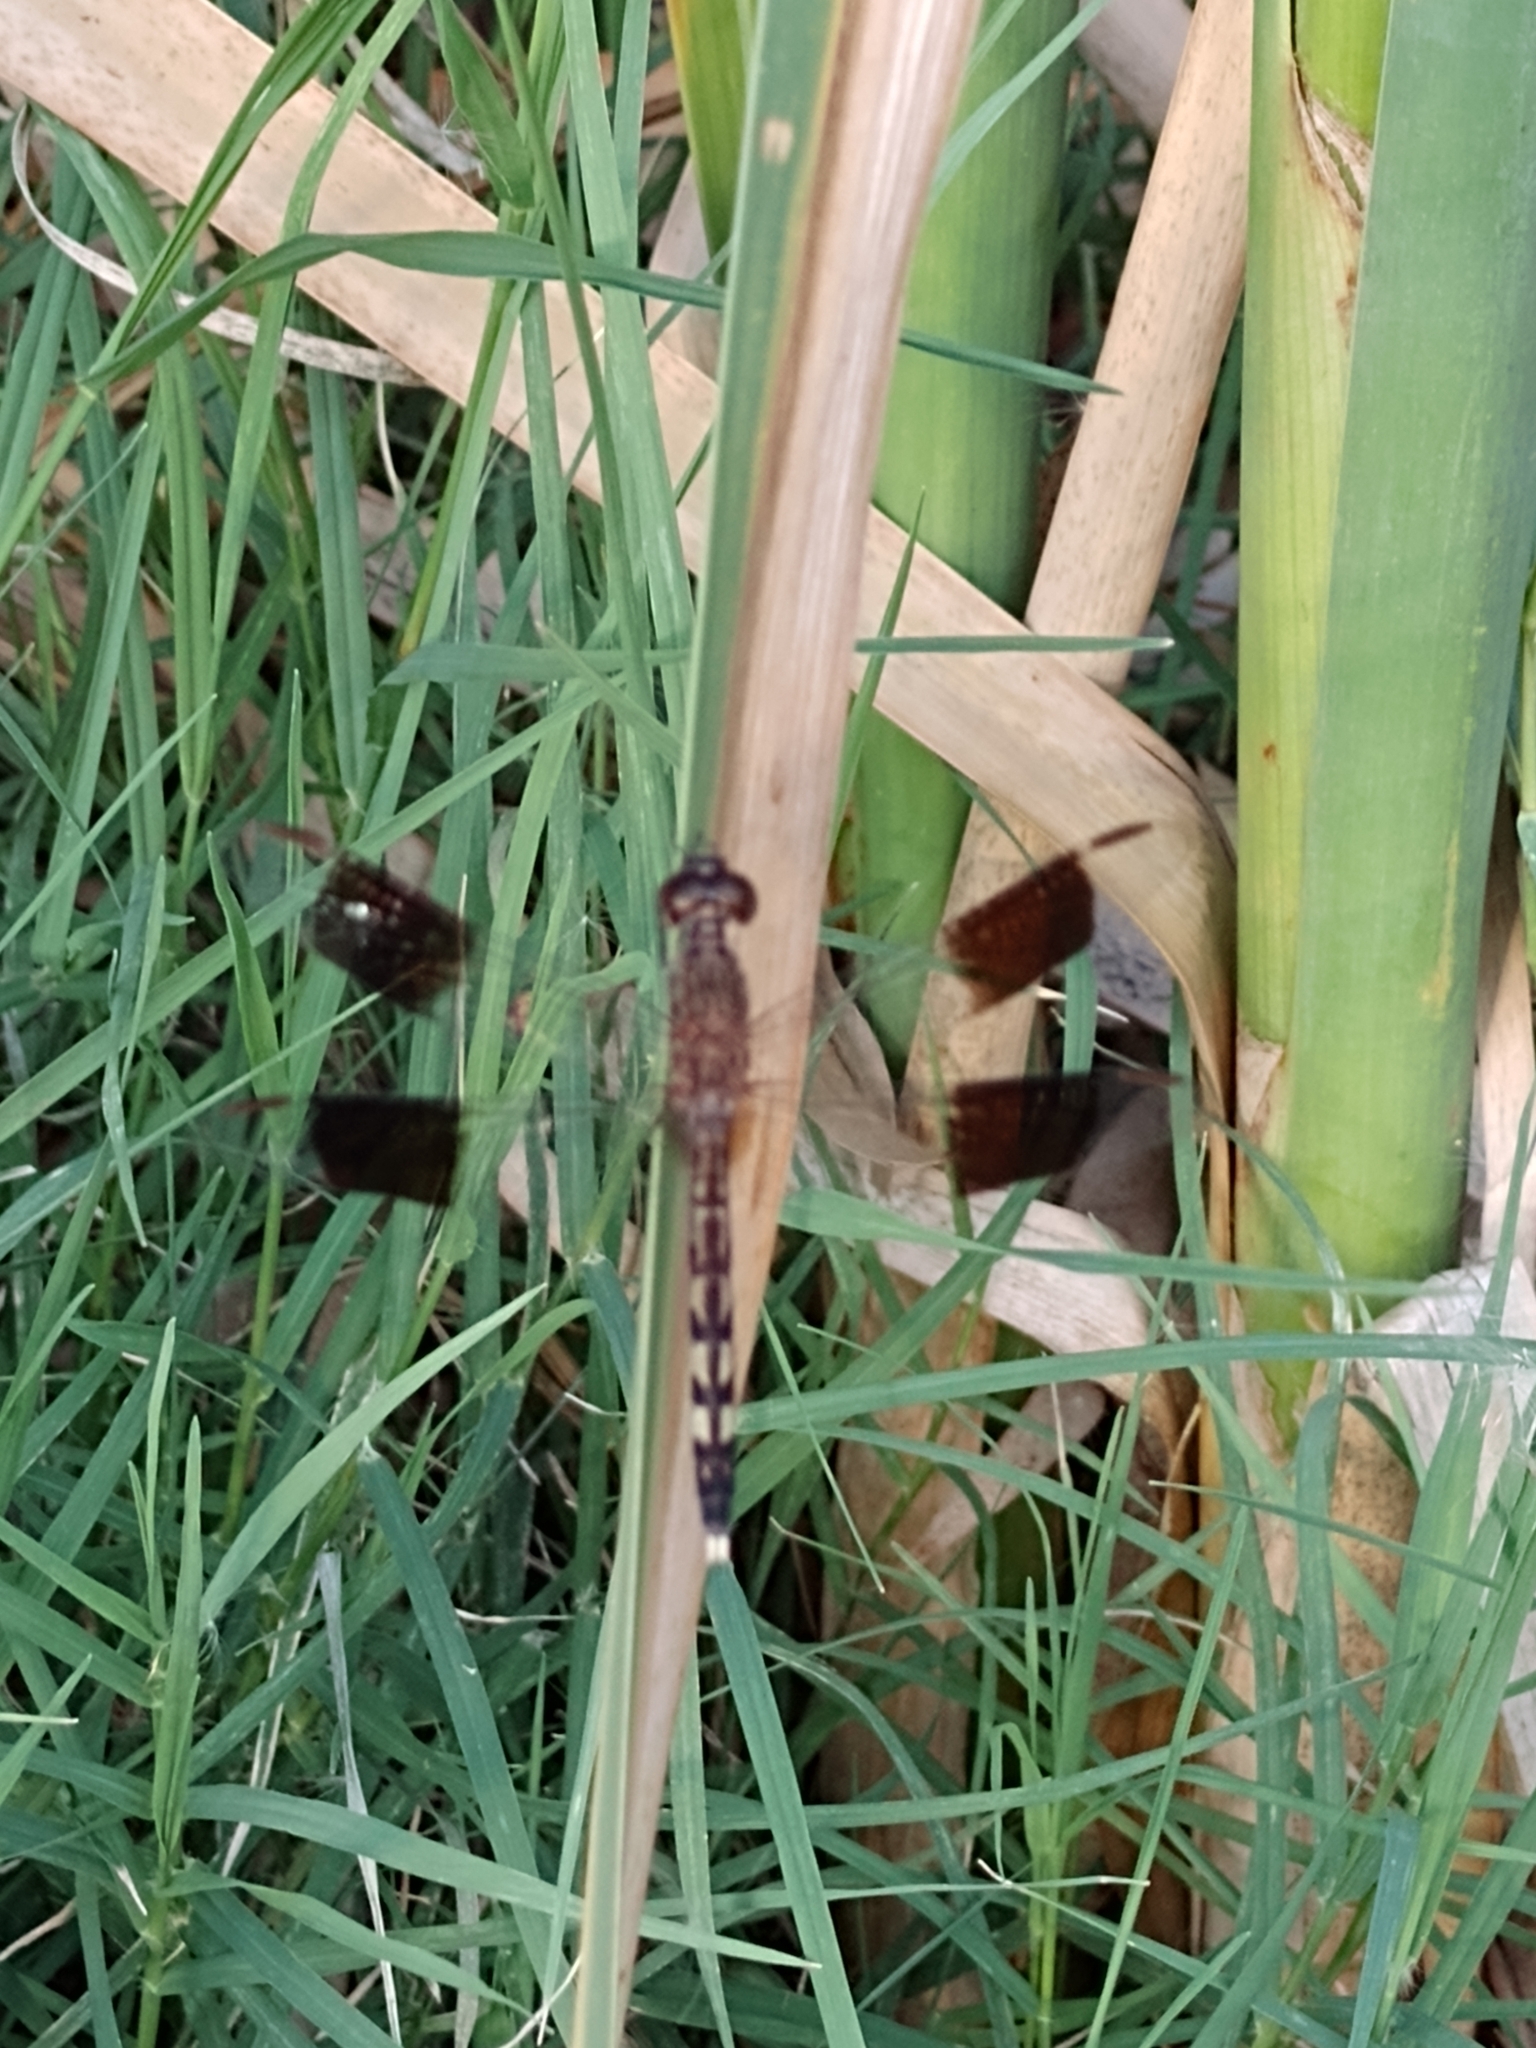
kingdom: Animalia
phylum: Arthropoda
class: Insecta
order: Odonata
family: Libellulidae
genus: Erythrodiplax
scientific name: Erythrodiplax umbrata
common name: Band-winged dragonlet
